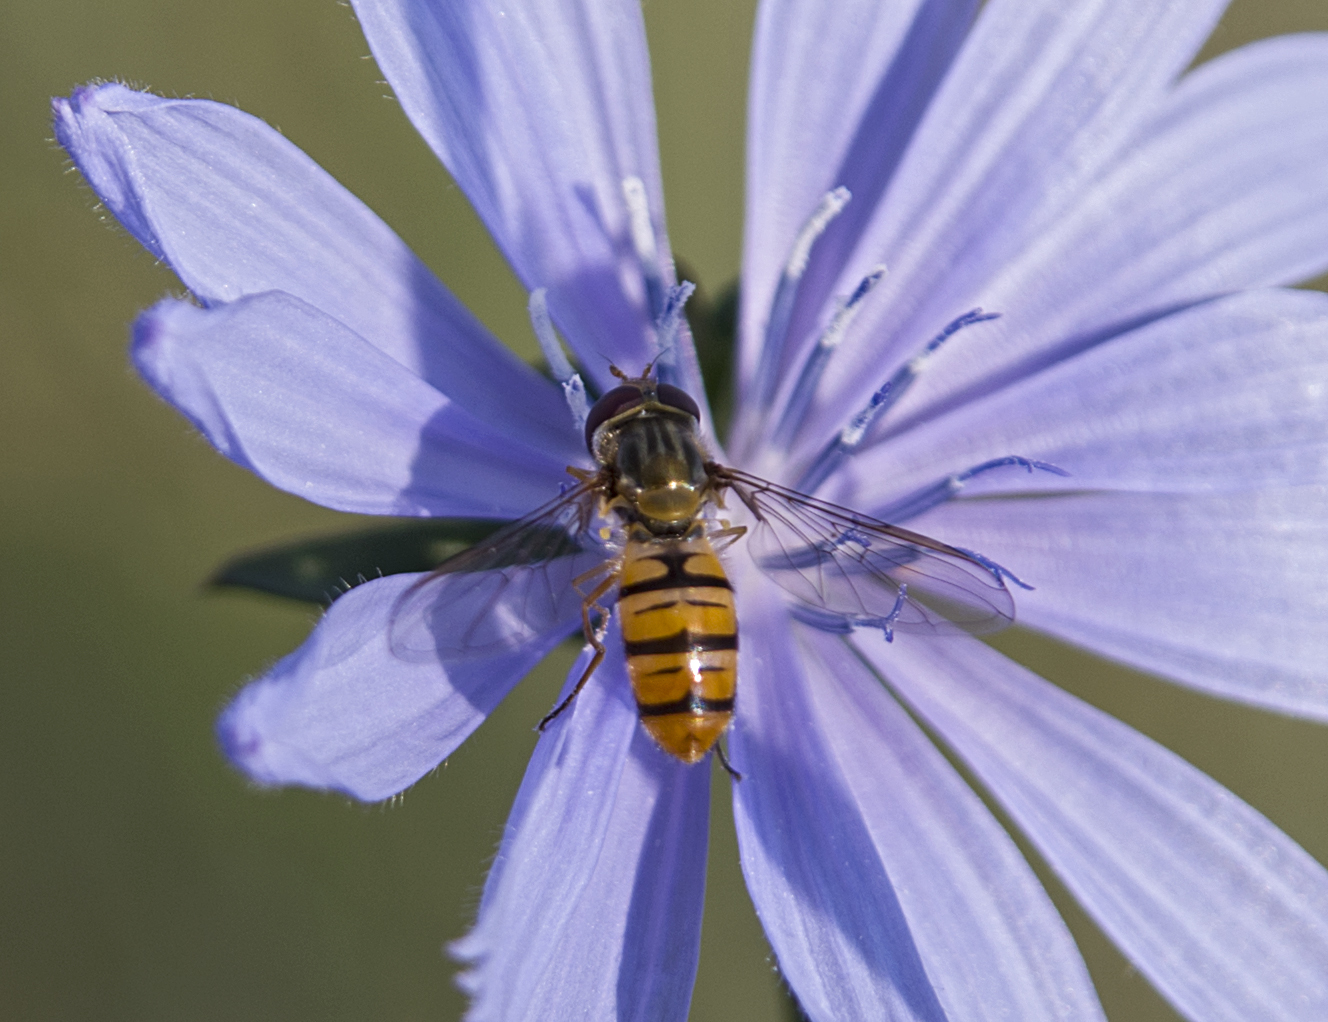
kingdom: Animalia
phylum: Arthropoda
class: Insecta
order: Diptera
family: Syrphidae
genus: Episyrphus
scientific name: Episyrphus balteatus
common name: Marmalade hoverfly
